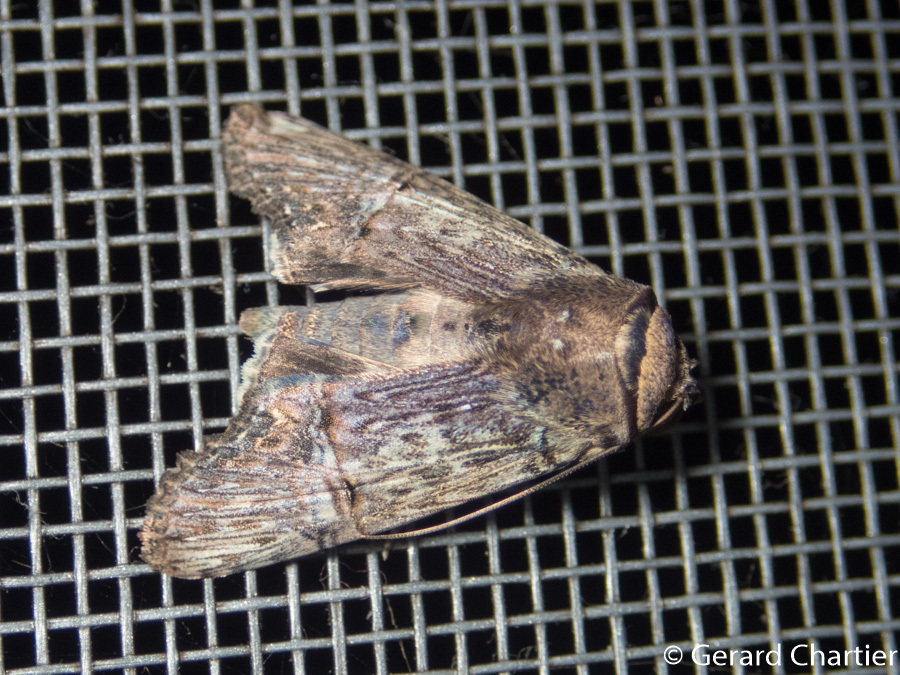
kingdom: Animalia
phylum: Arthropoda
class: Insecta
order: Lepidoptera
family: Euteliidae
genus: Stictoptera
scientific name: Stictoptera trajiciens
